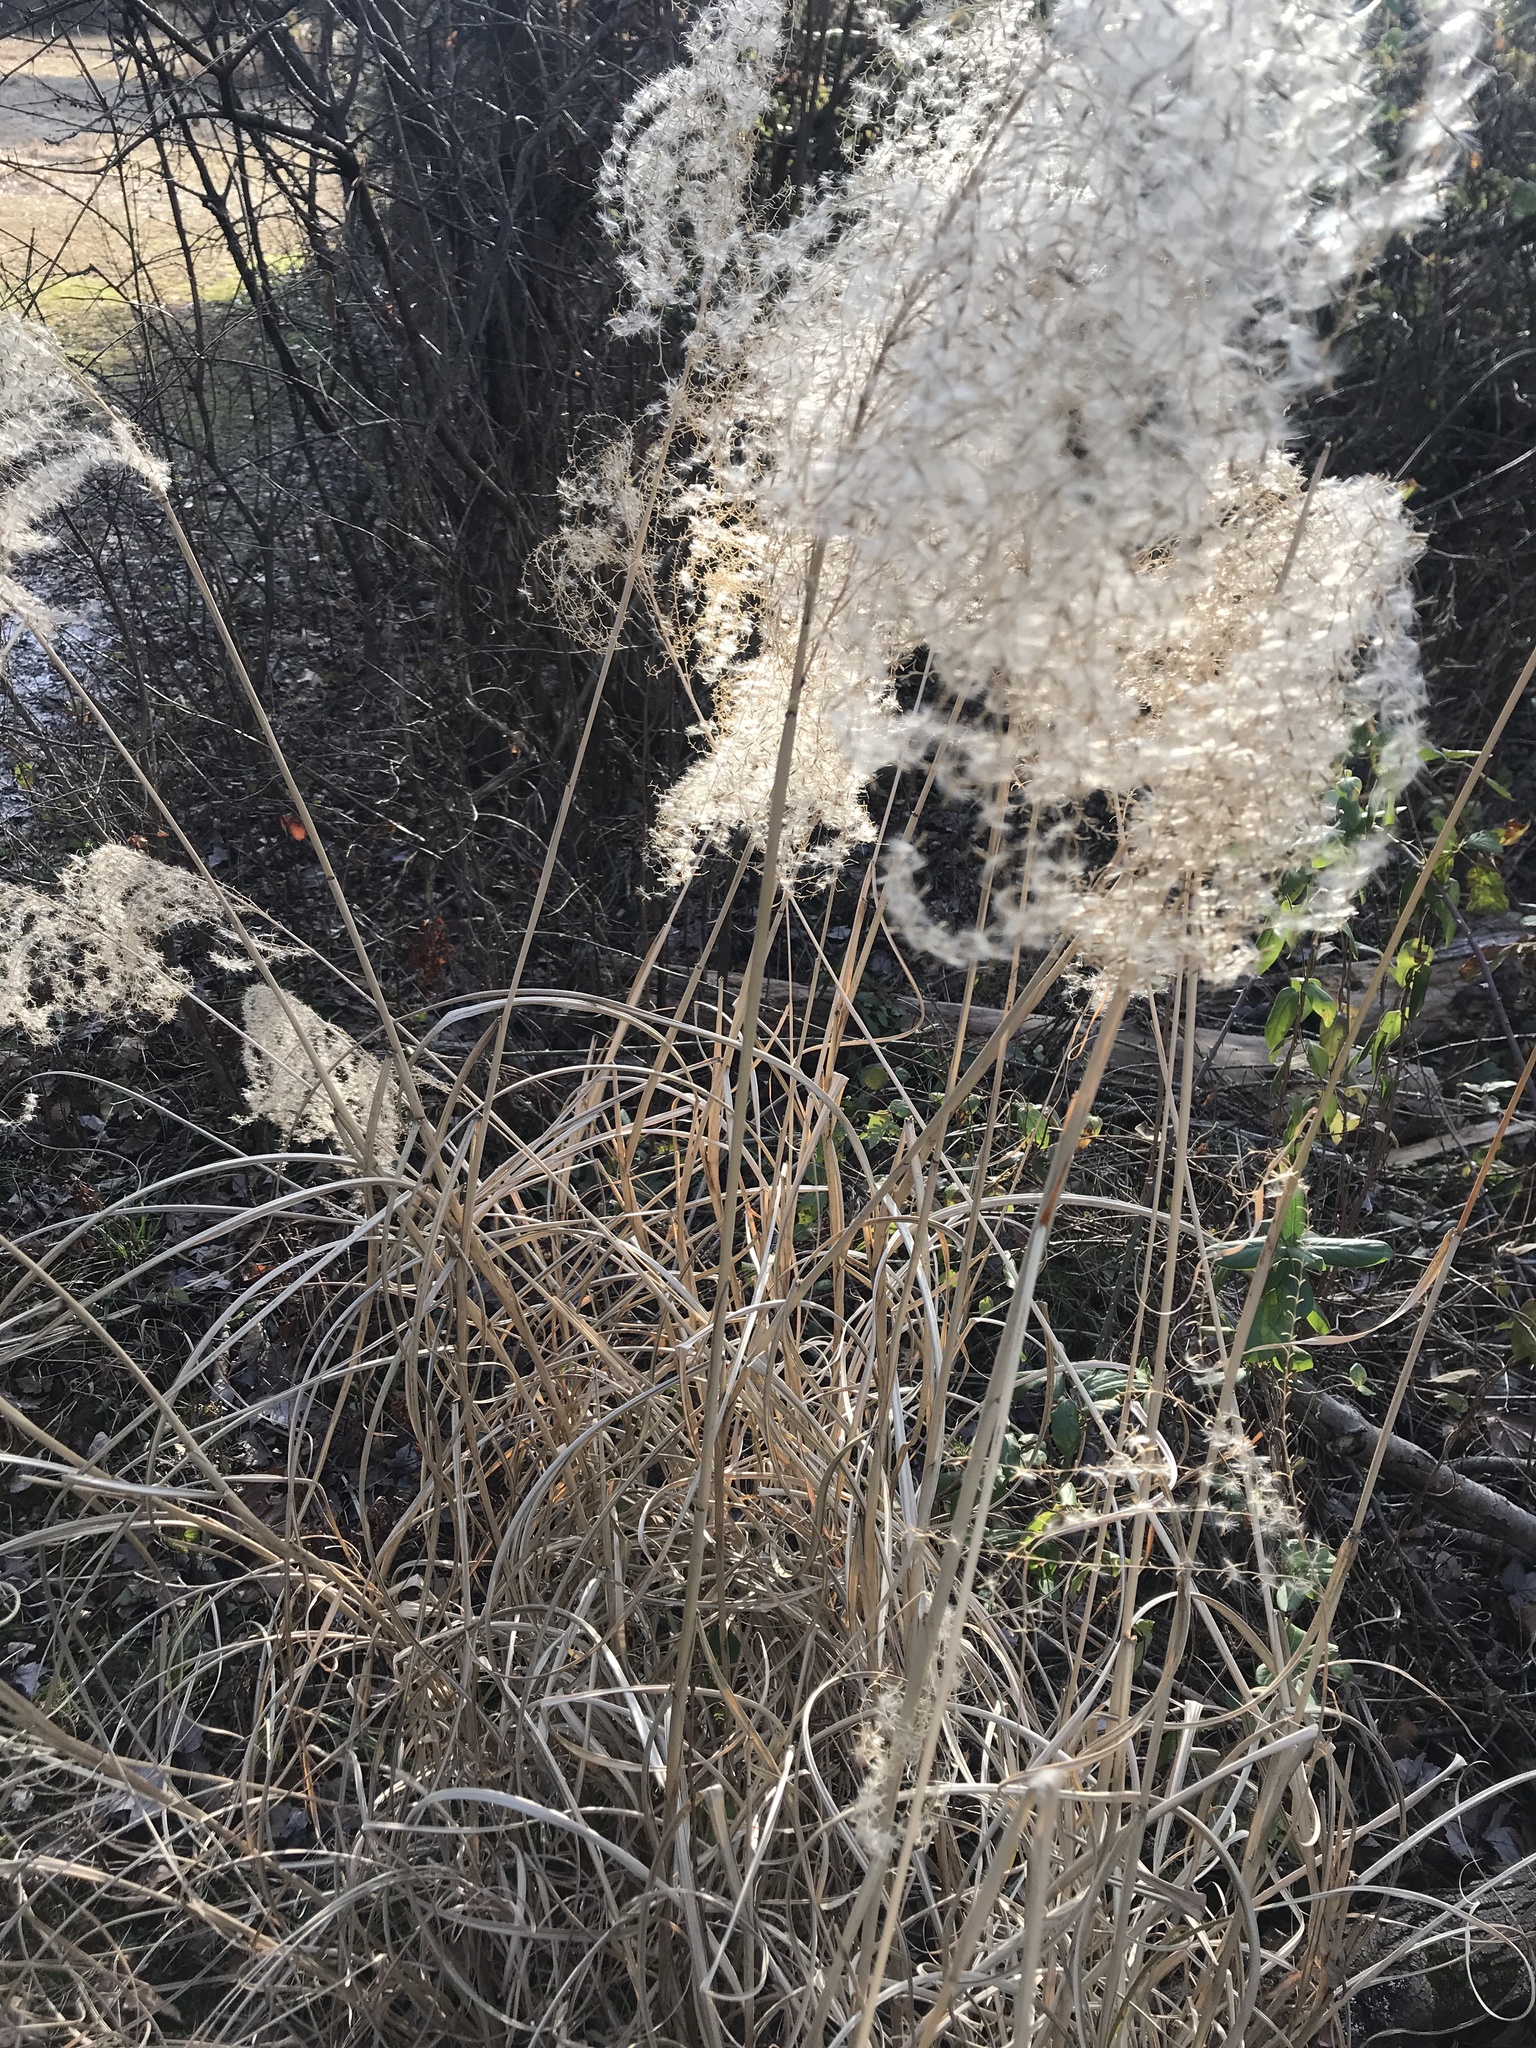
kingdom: Plantae
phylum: Tracheophyta
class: Liliopsida
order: Poales
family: Poaceae
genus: Miscanthus
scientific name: Miscanthus sinensis
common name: Chinese silvergrass
